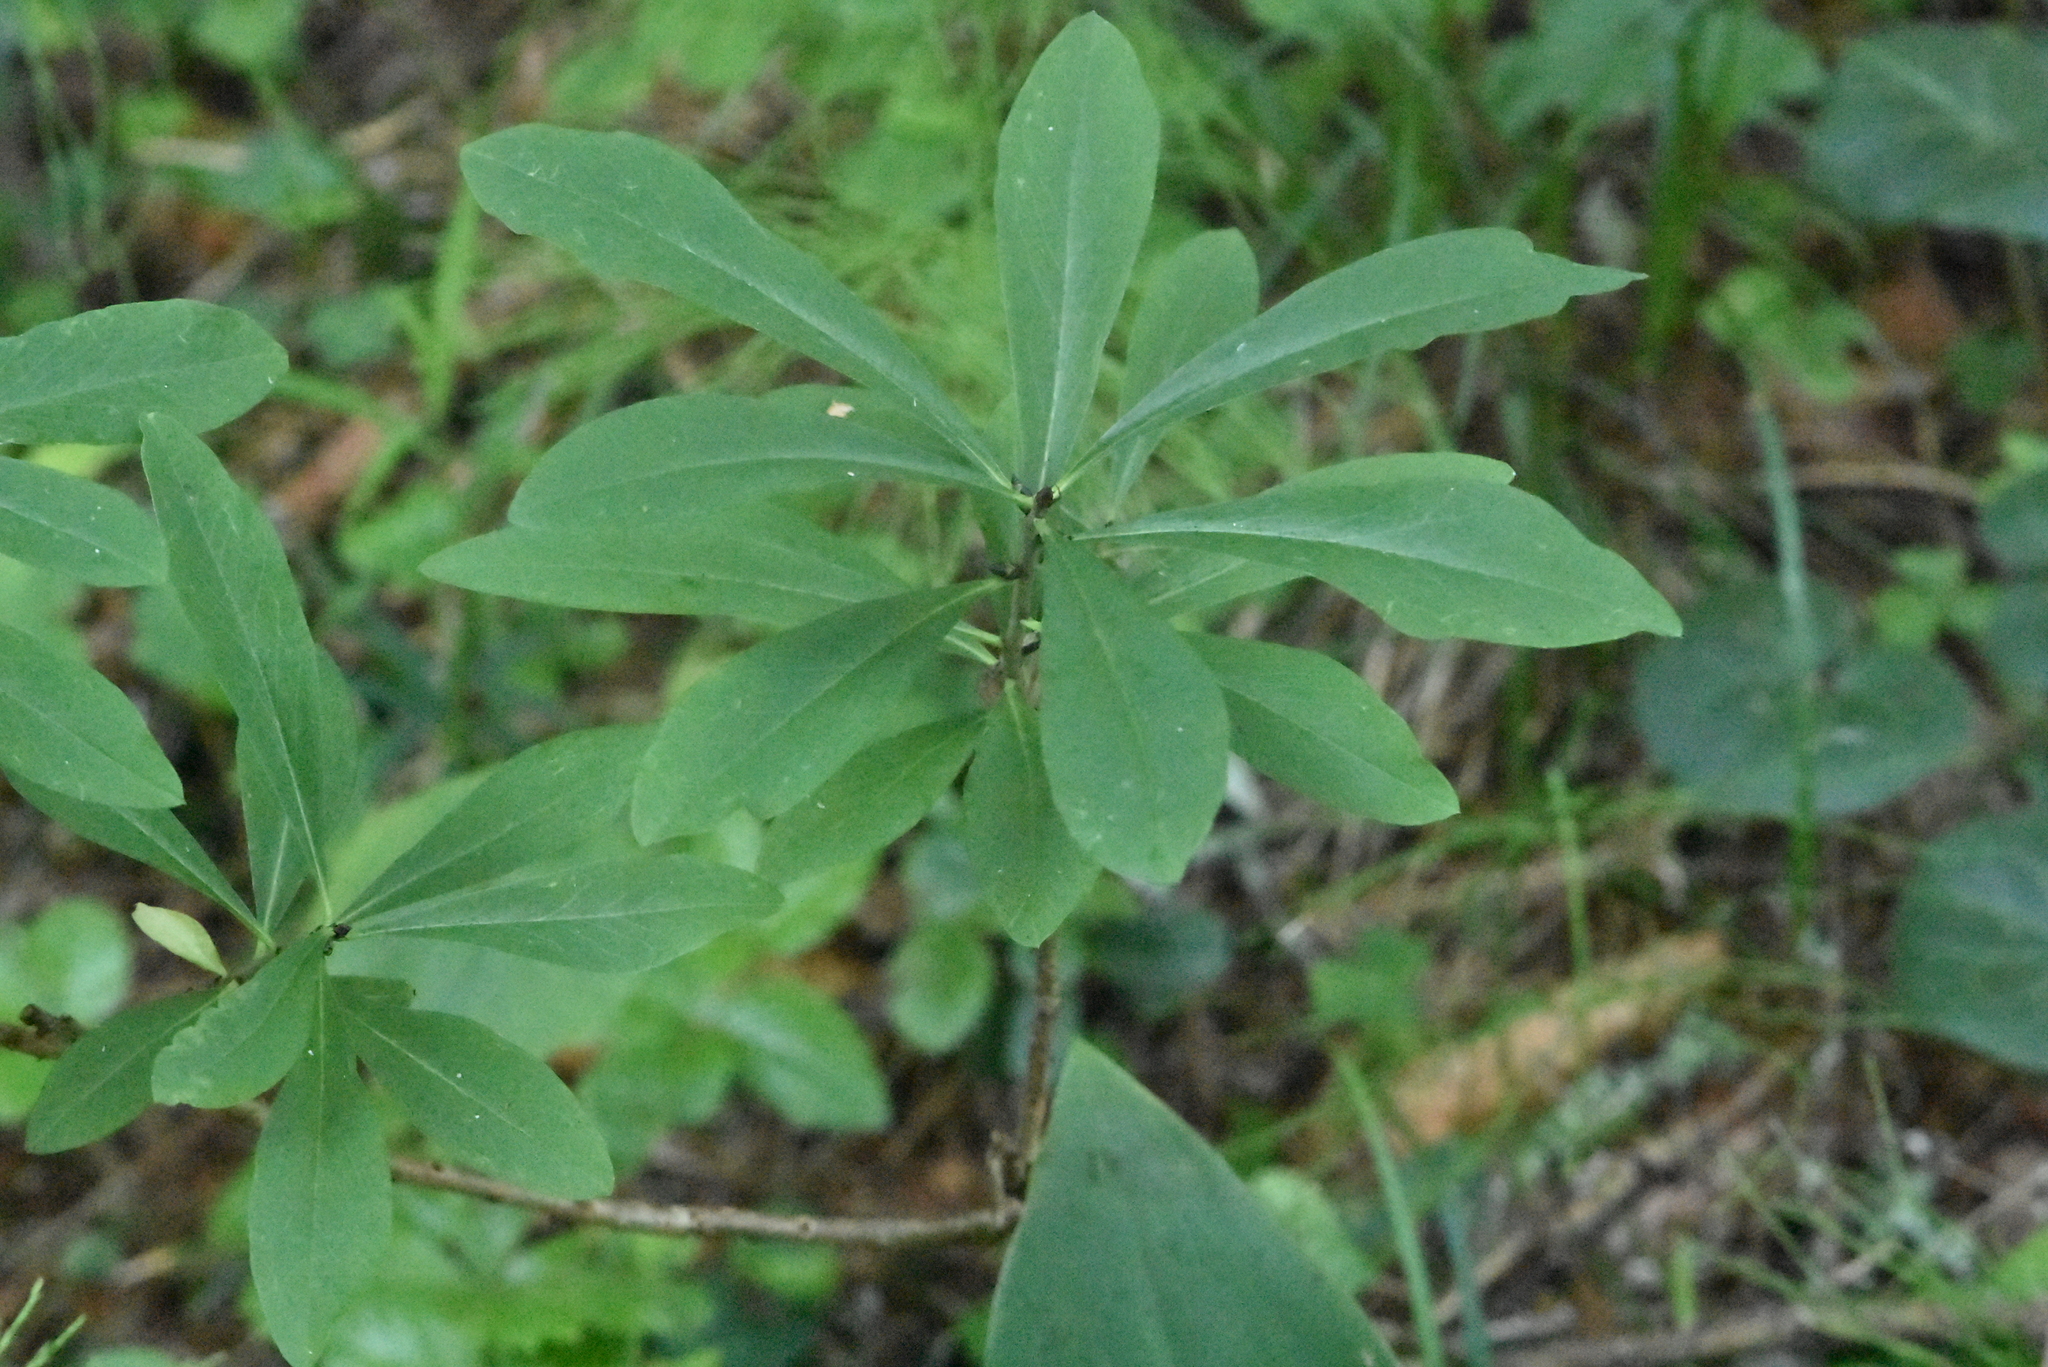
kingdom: Plantae
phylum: Tracheophyta
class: Magnoliopsida
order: Malvales
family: Thymelaeaceae
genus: Daphne
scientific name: Daphne mezereum
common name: Mezereon
